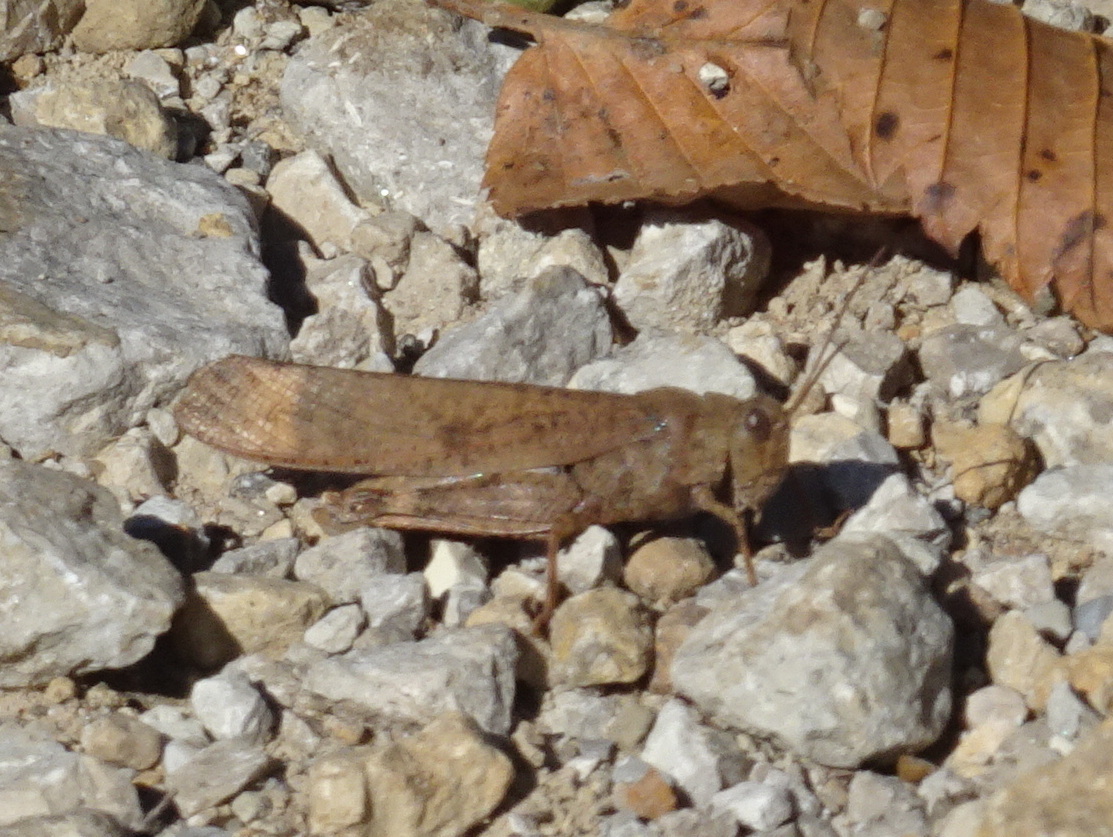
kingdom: Animalia
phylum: Arthropoda
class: Insecta
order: Orthoptera
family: Acrididae
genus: Dissosteira
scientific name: Dissosteira carolina
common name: Carolina grasshopper
